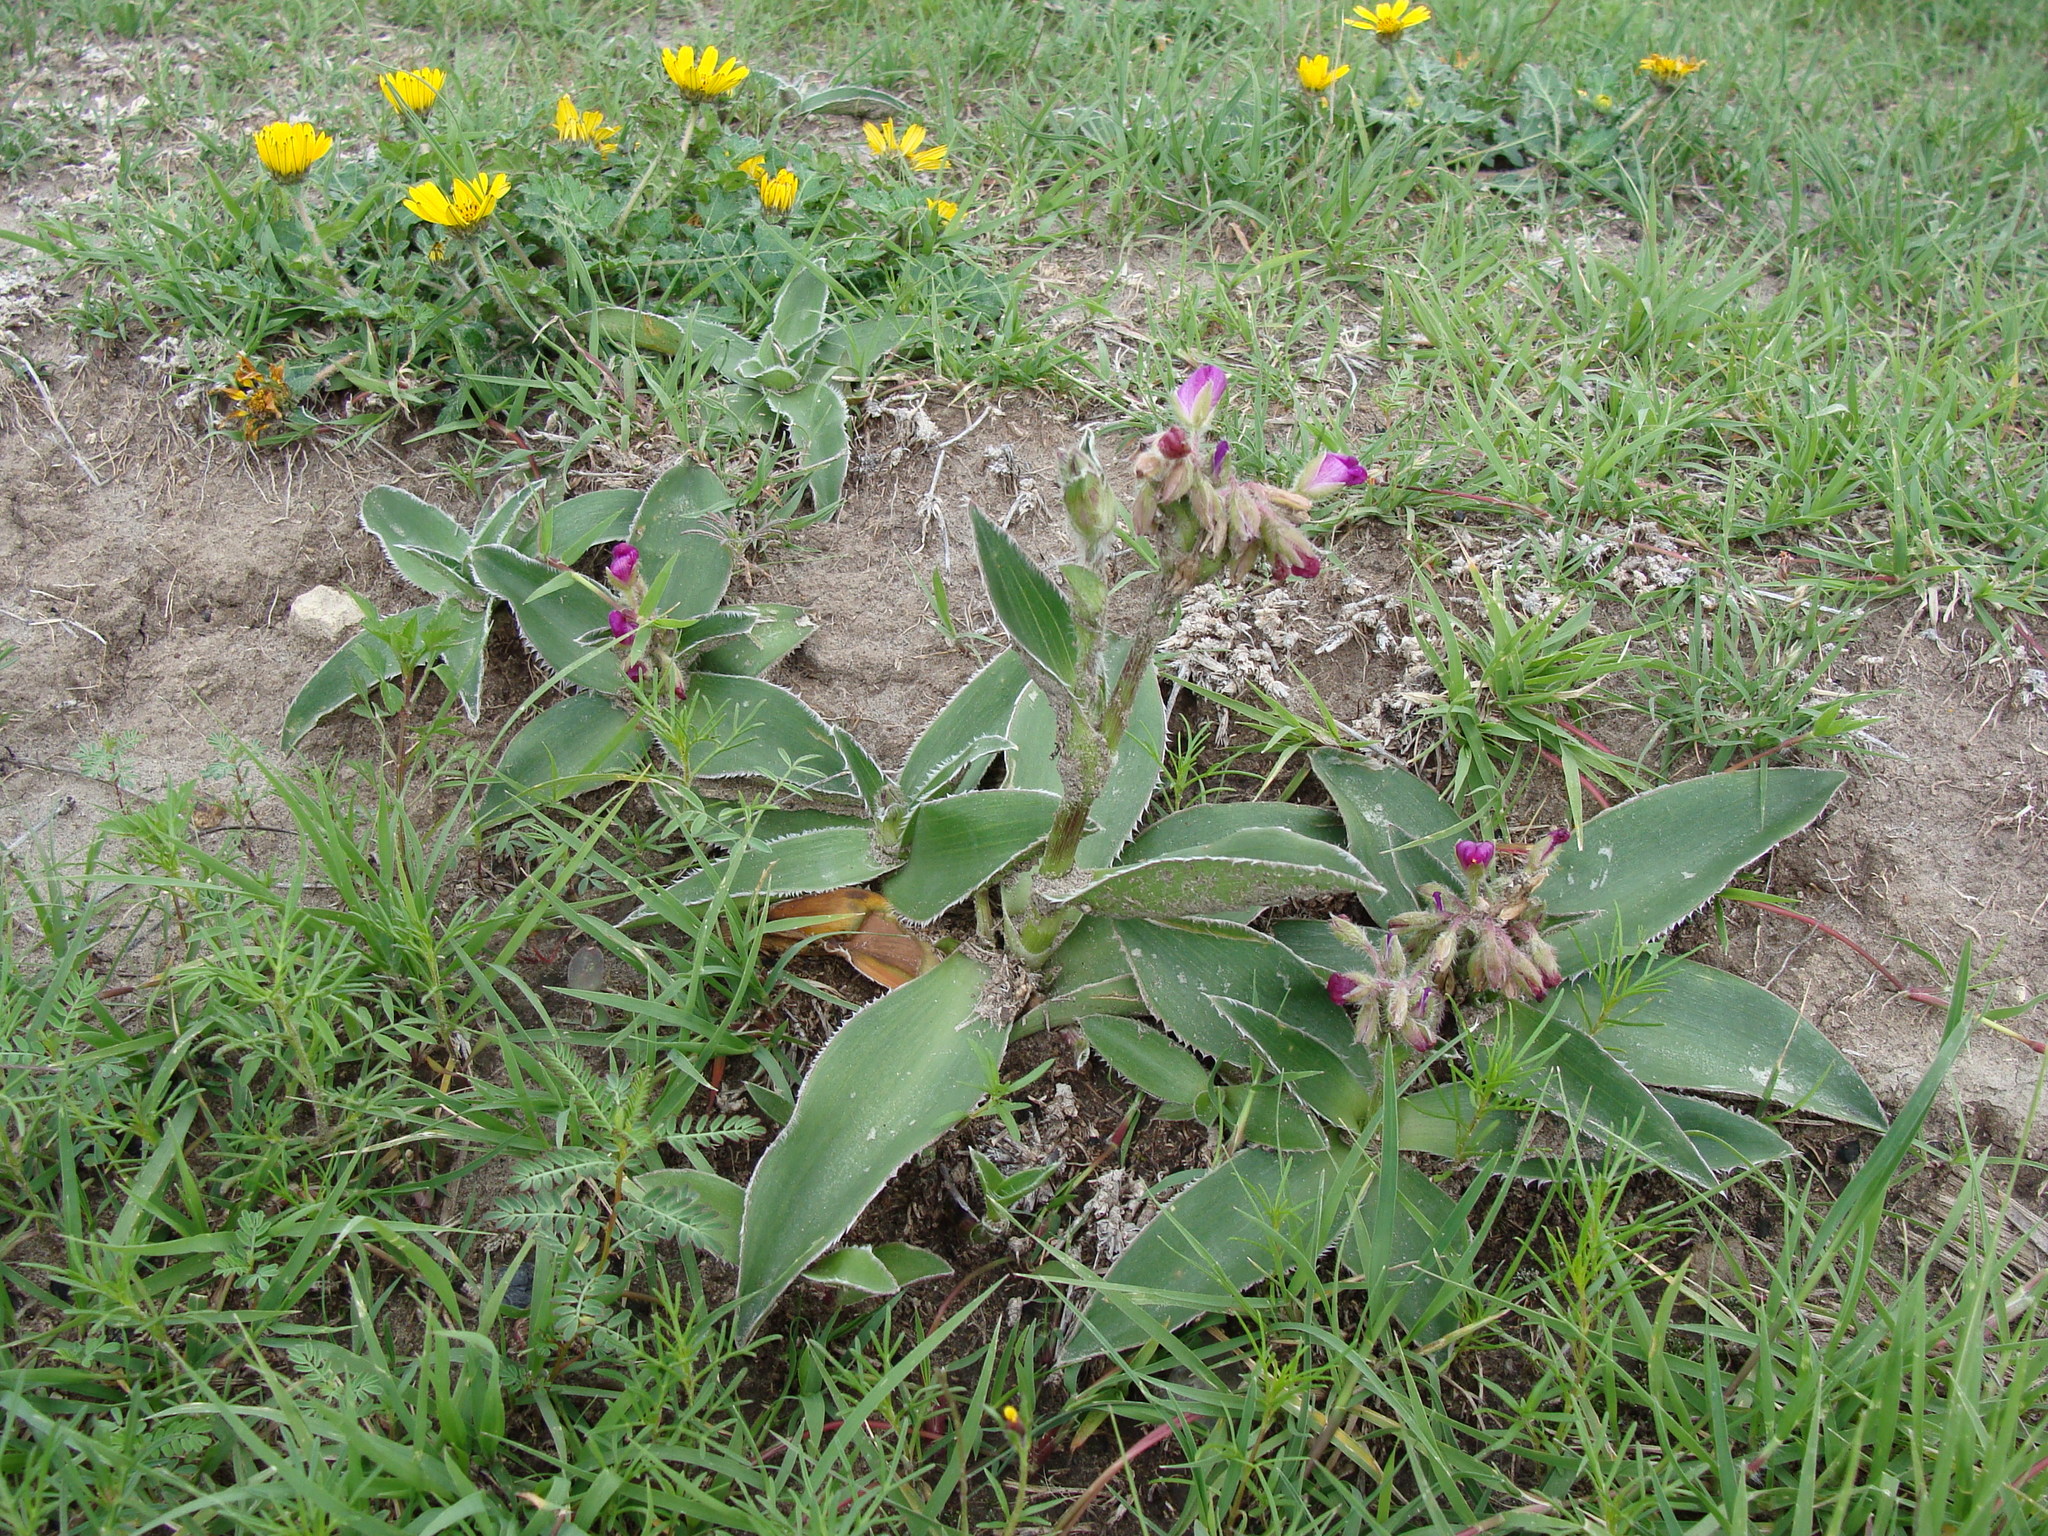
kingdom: Plantae
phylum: Tracheophyta
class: Liliopsida
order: Commelinales
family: Commelinaceae
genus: Tradescantia
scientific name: Tradescantia crassifolia
